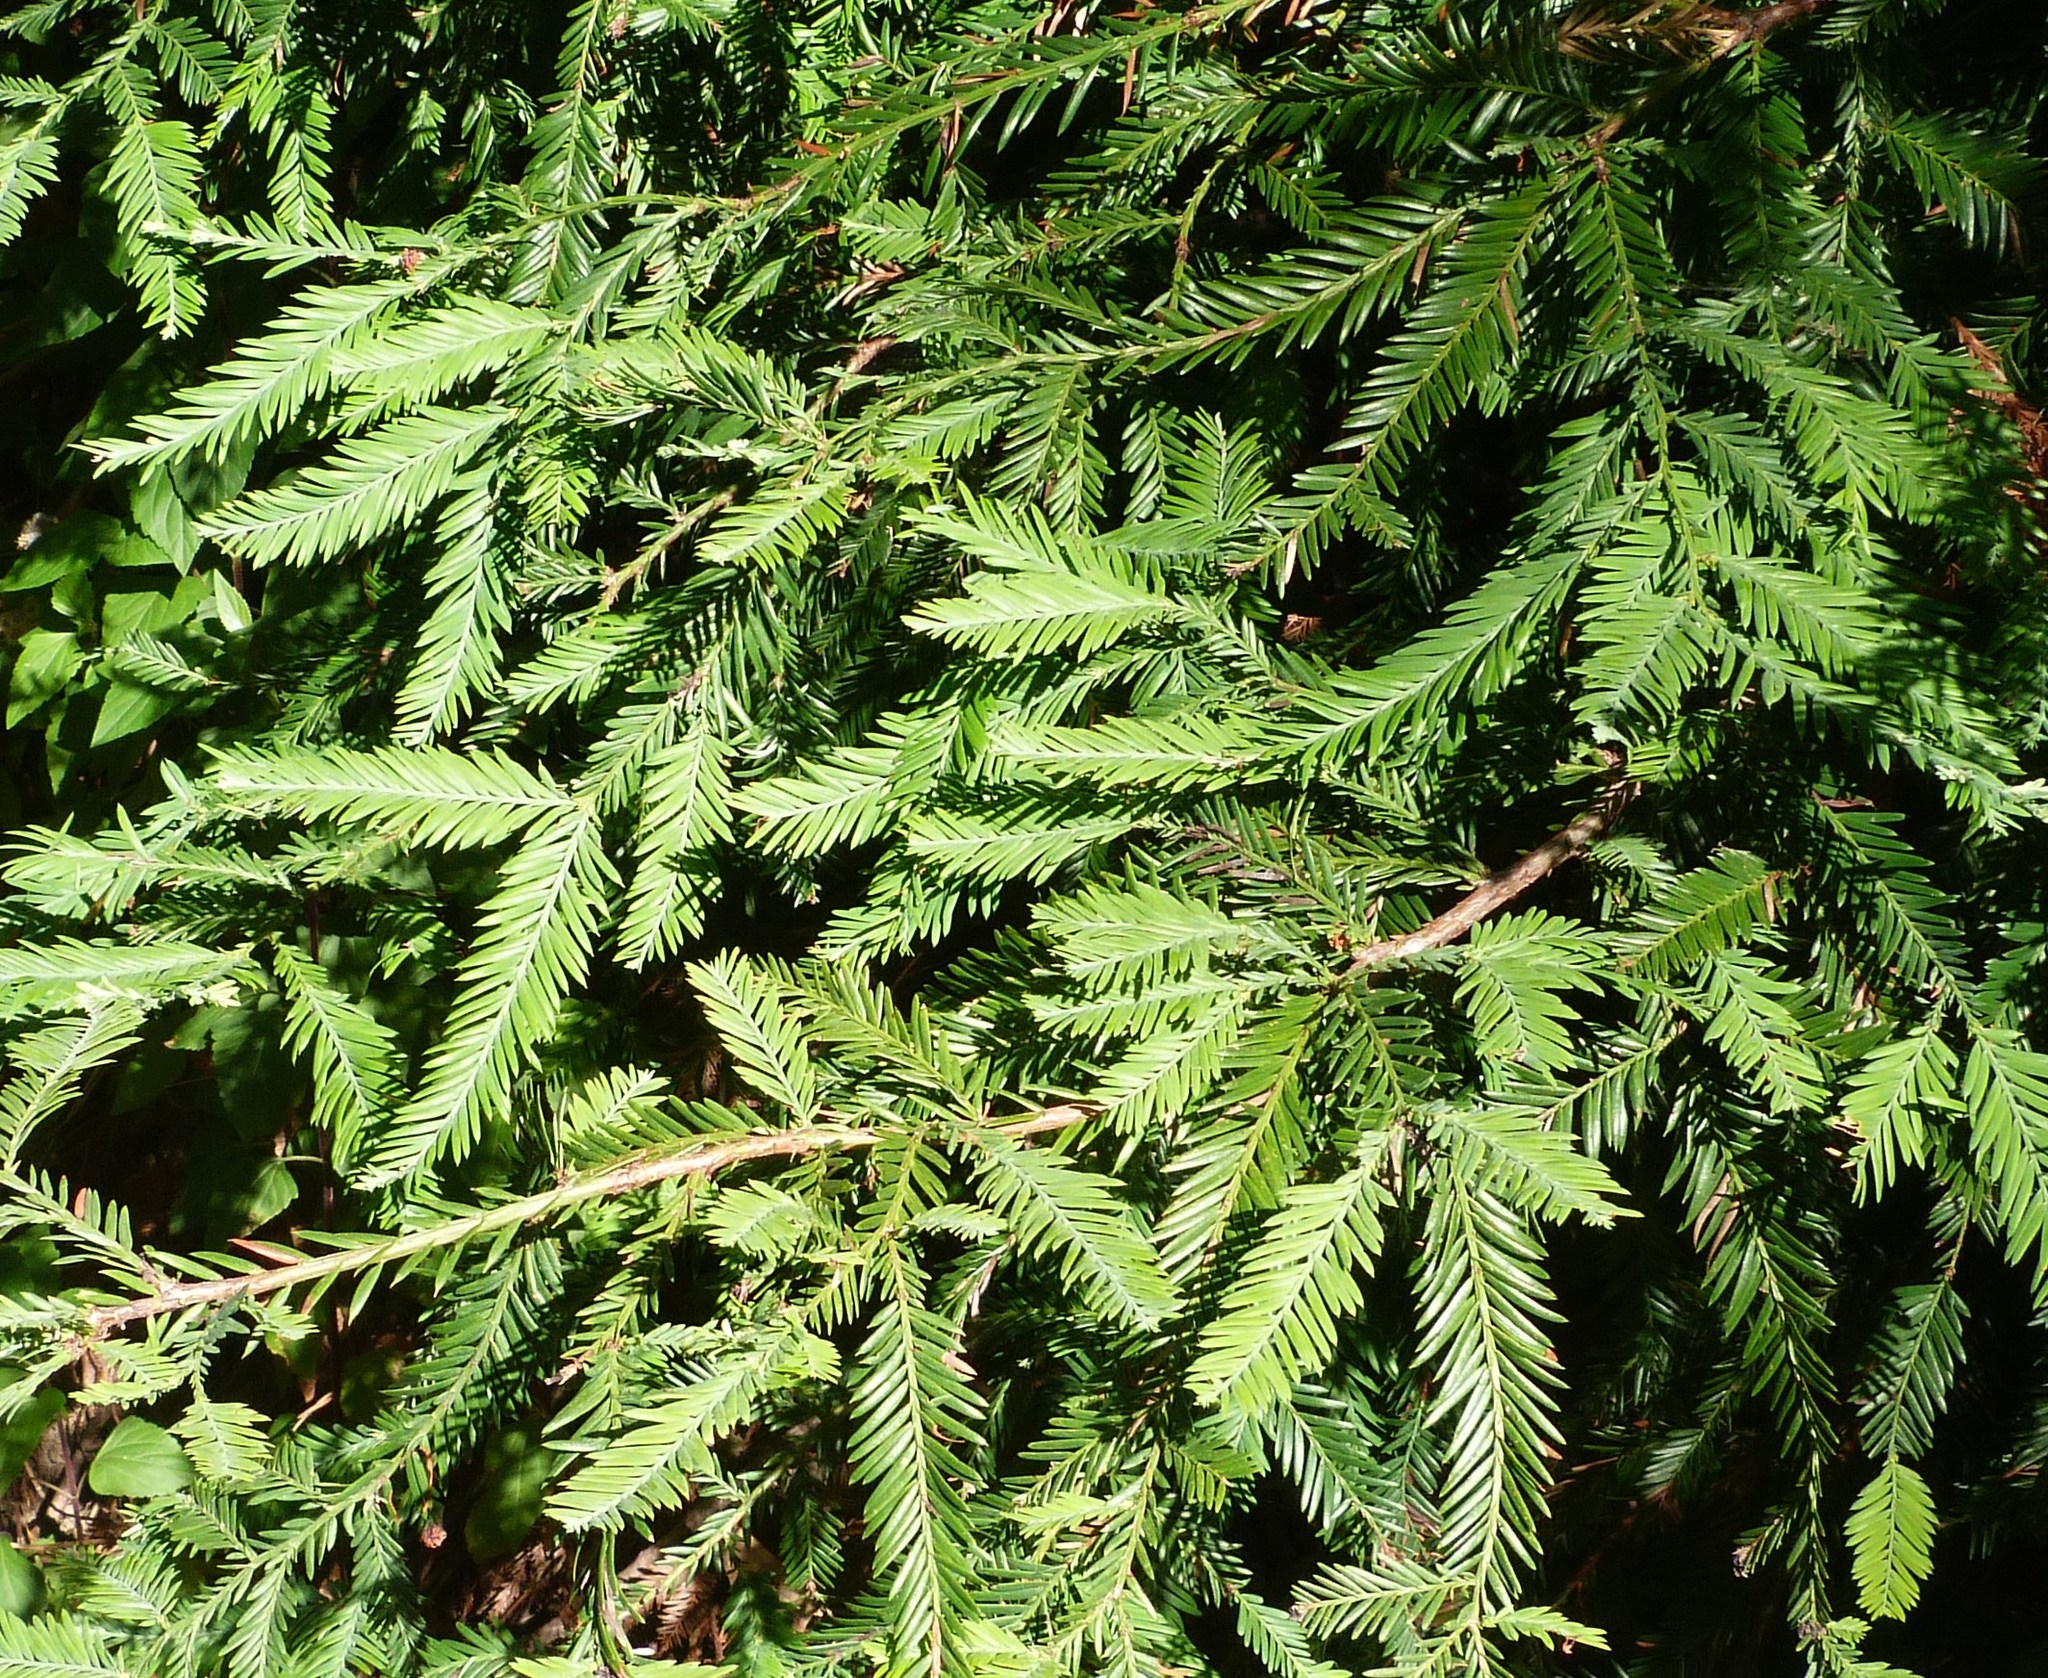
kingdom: Plantae
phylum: Tracheophyta
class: Pinopsida
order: Pinales
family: Cupressaceae
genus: Sequoia
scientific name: Sequoia sempervirens
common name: Coast redwood
